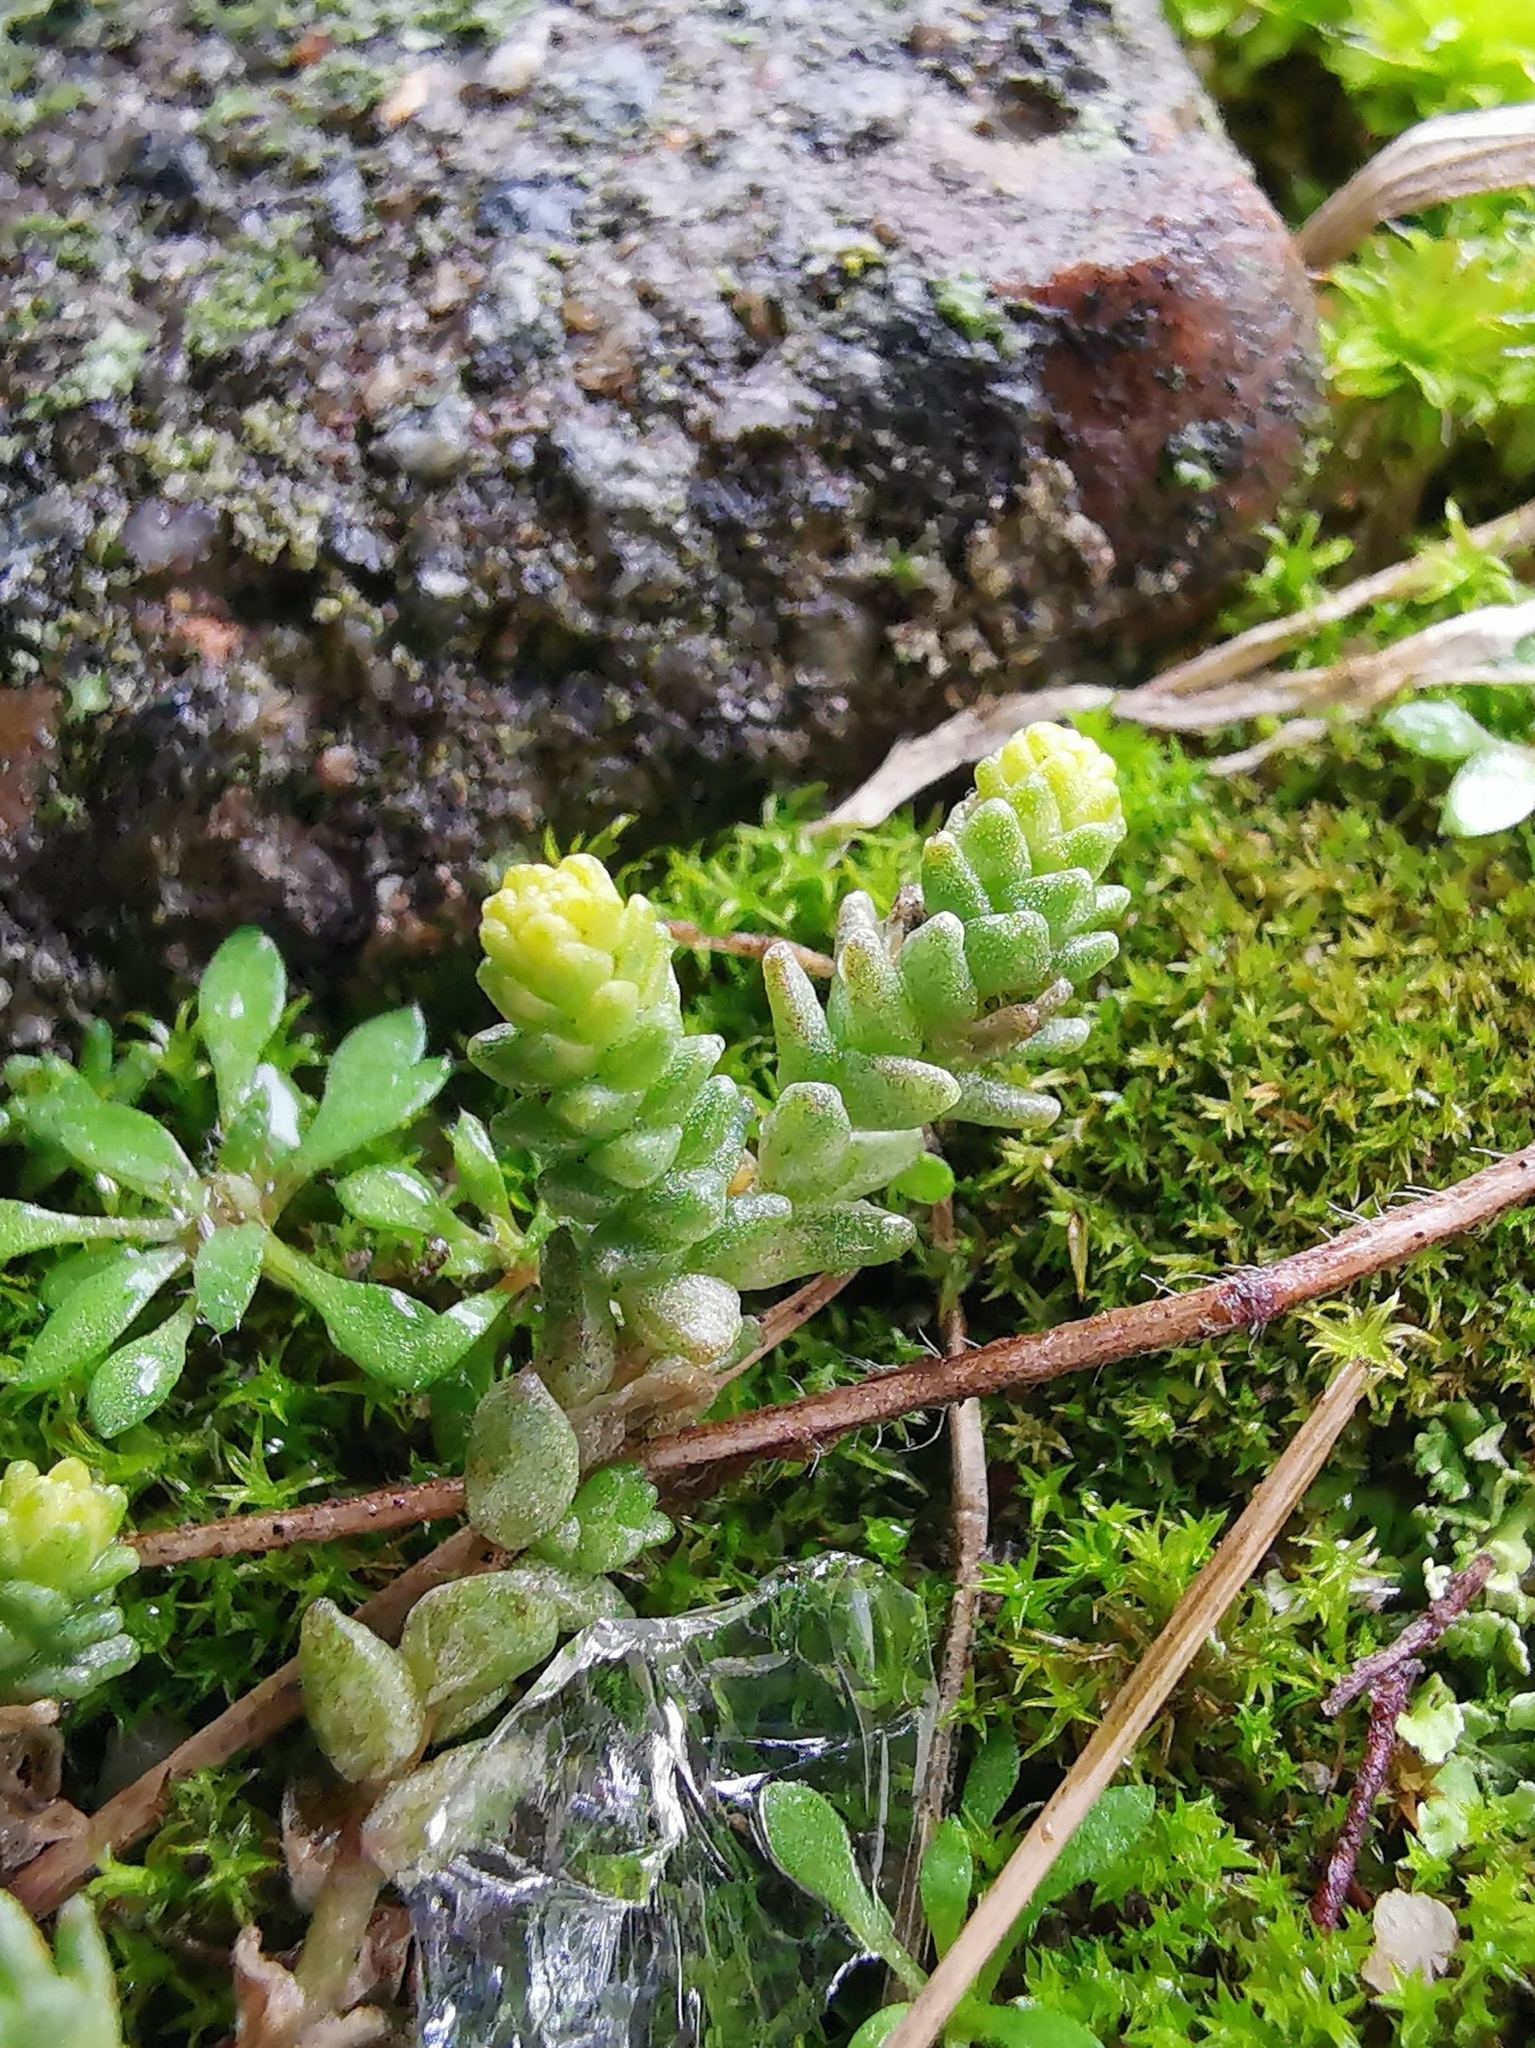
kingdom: Plantae
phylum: Tracheophyta
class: Magnoliopsida
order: Saxifragales
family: Crassulaceae
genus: Sedum
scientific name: Sedum acre
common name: Biting stonecrop
